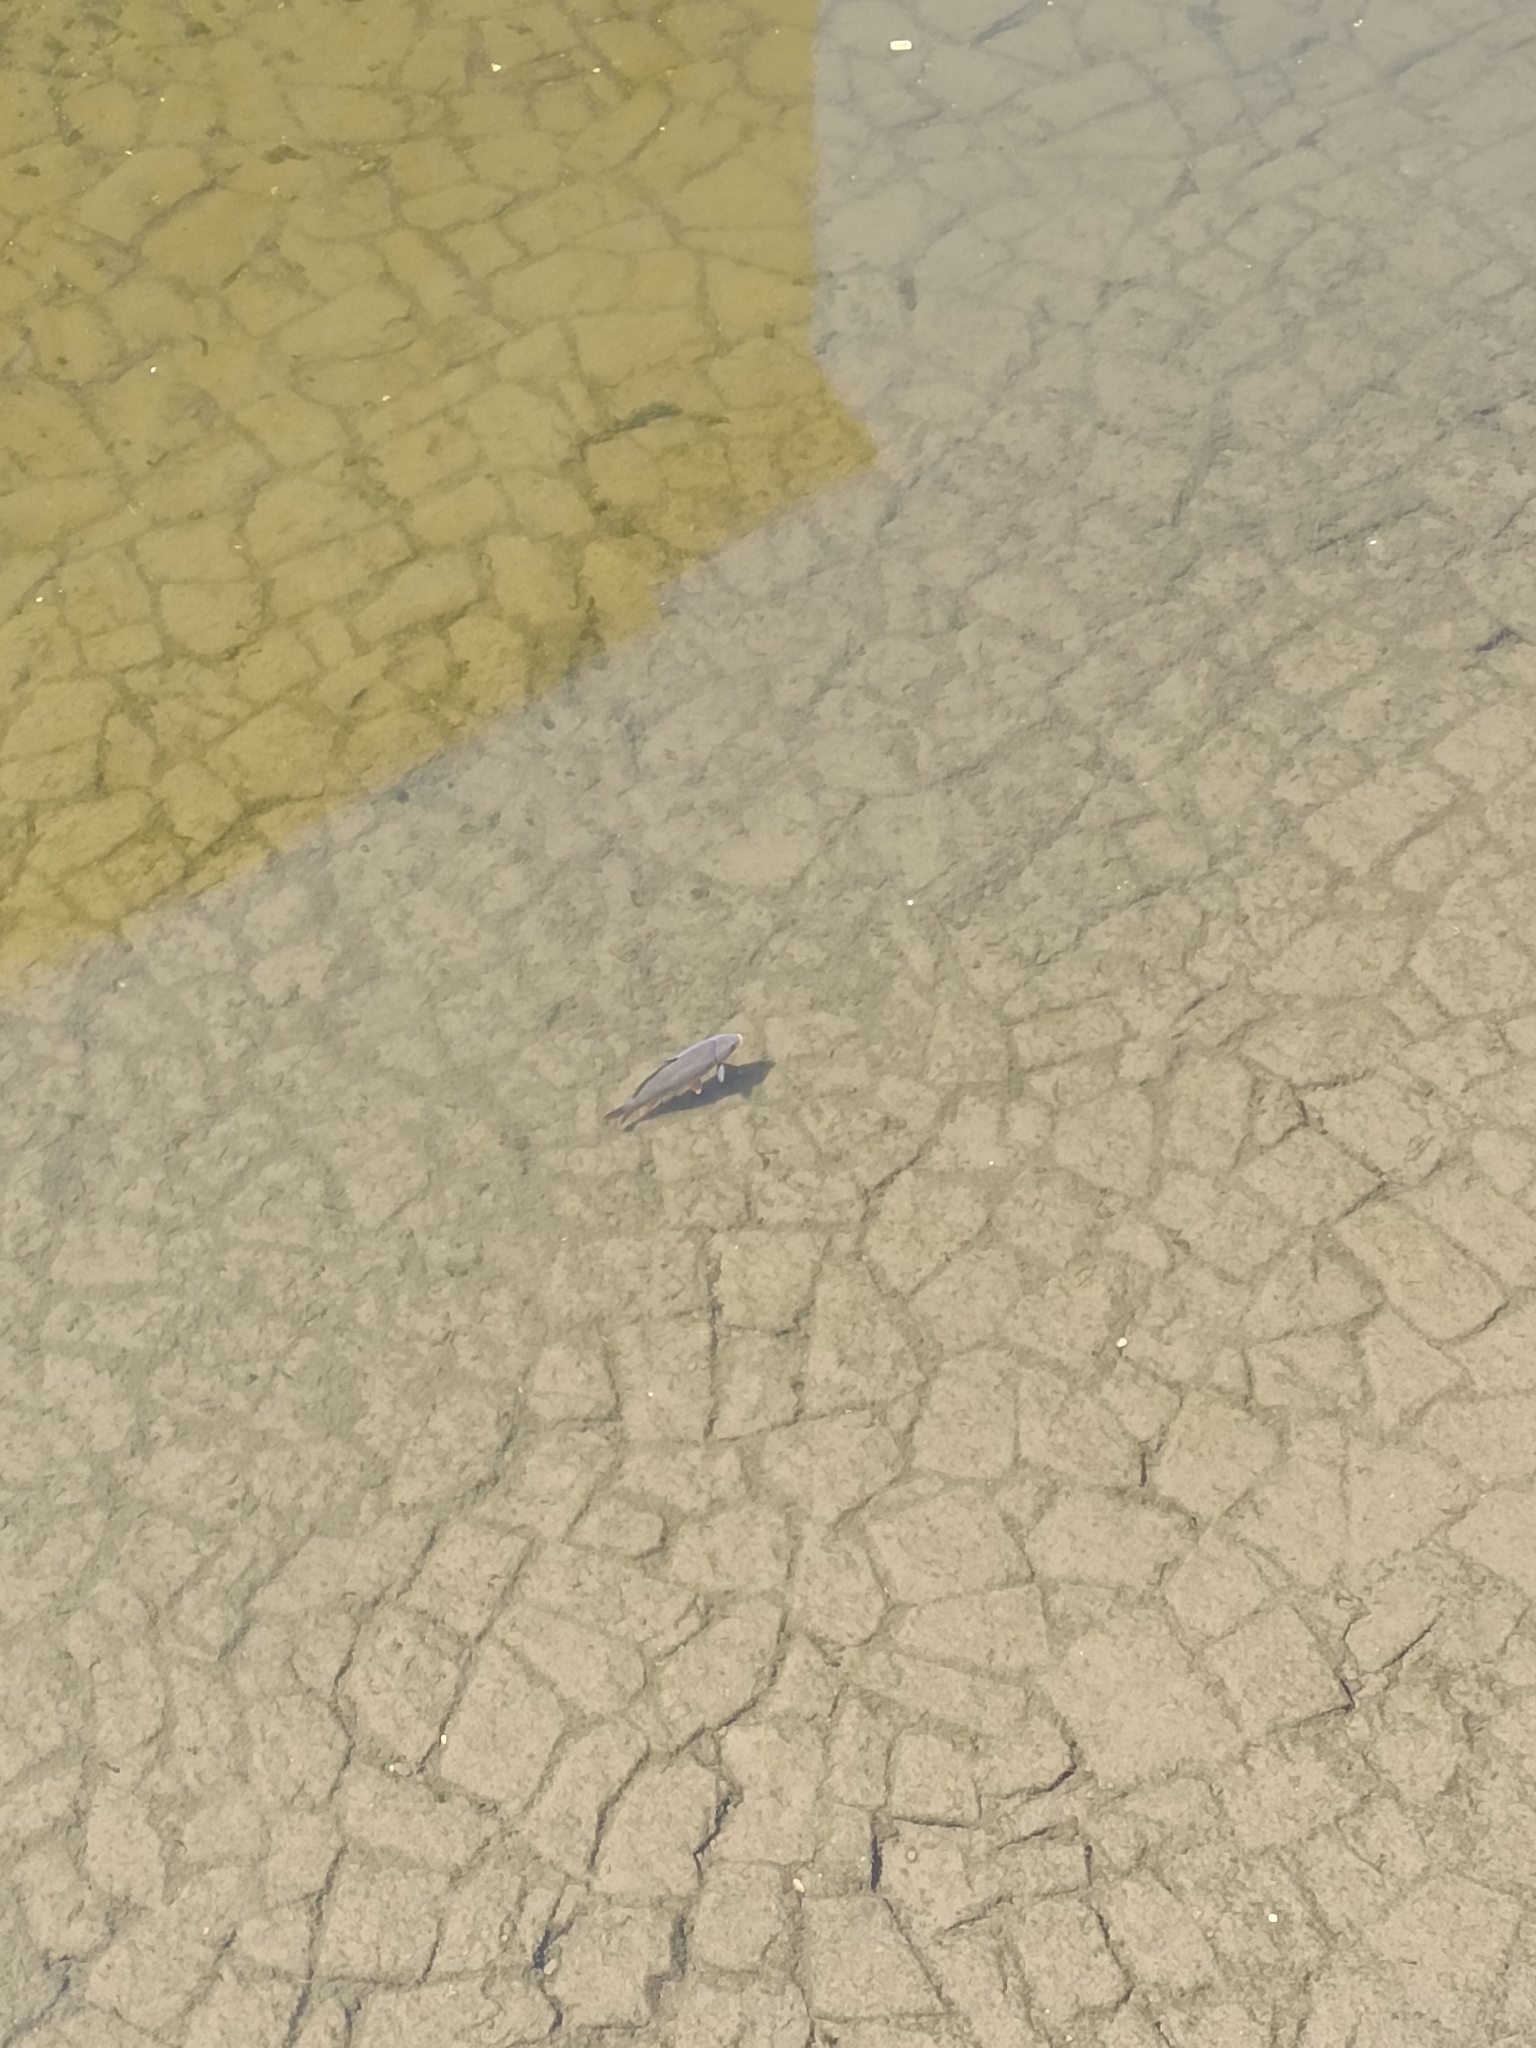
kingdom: Animalia
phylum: Chordata
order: Cypriniformes
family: Cyprinidae
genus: Cyprinus
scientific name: Cyprinus carpio
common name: Common carp
